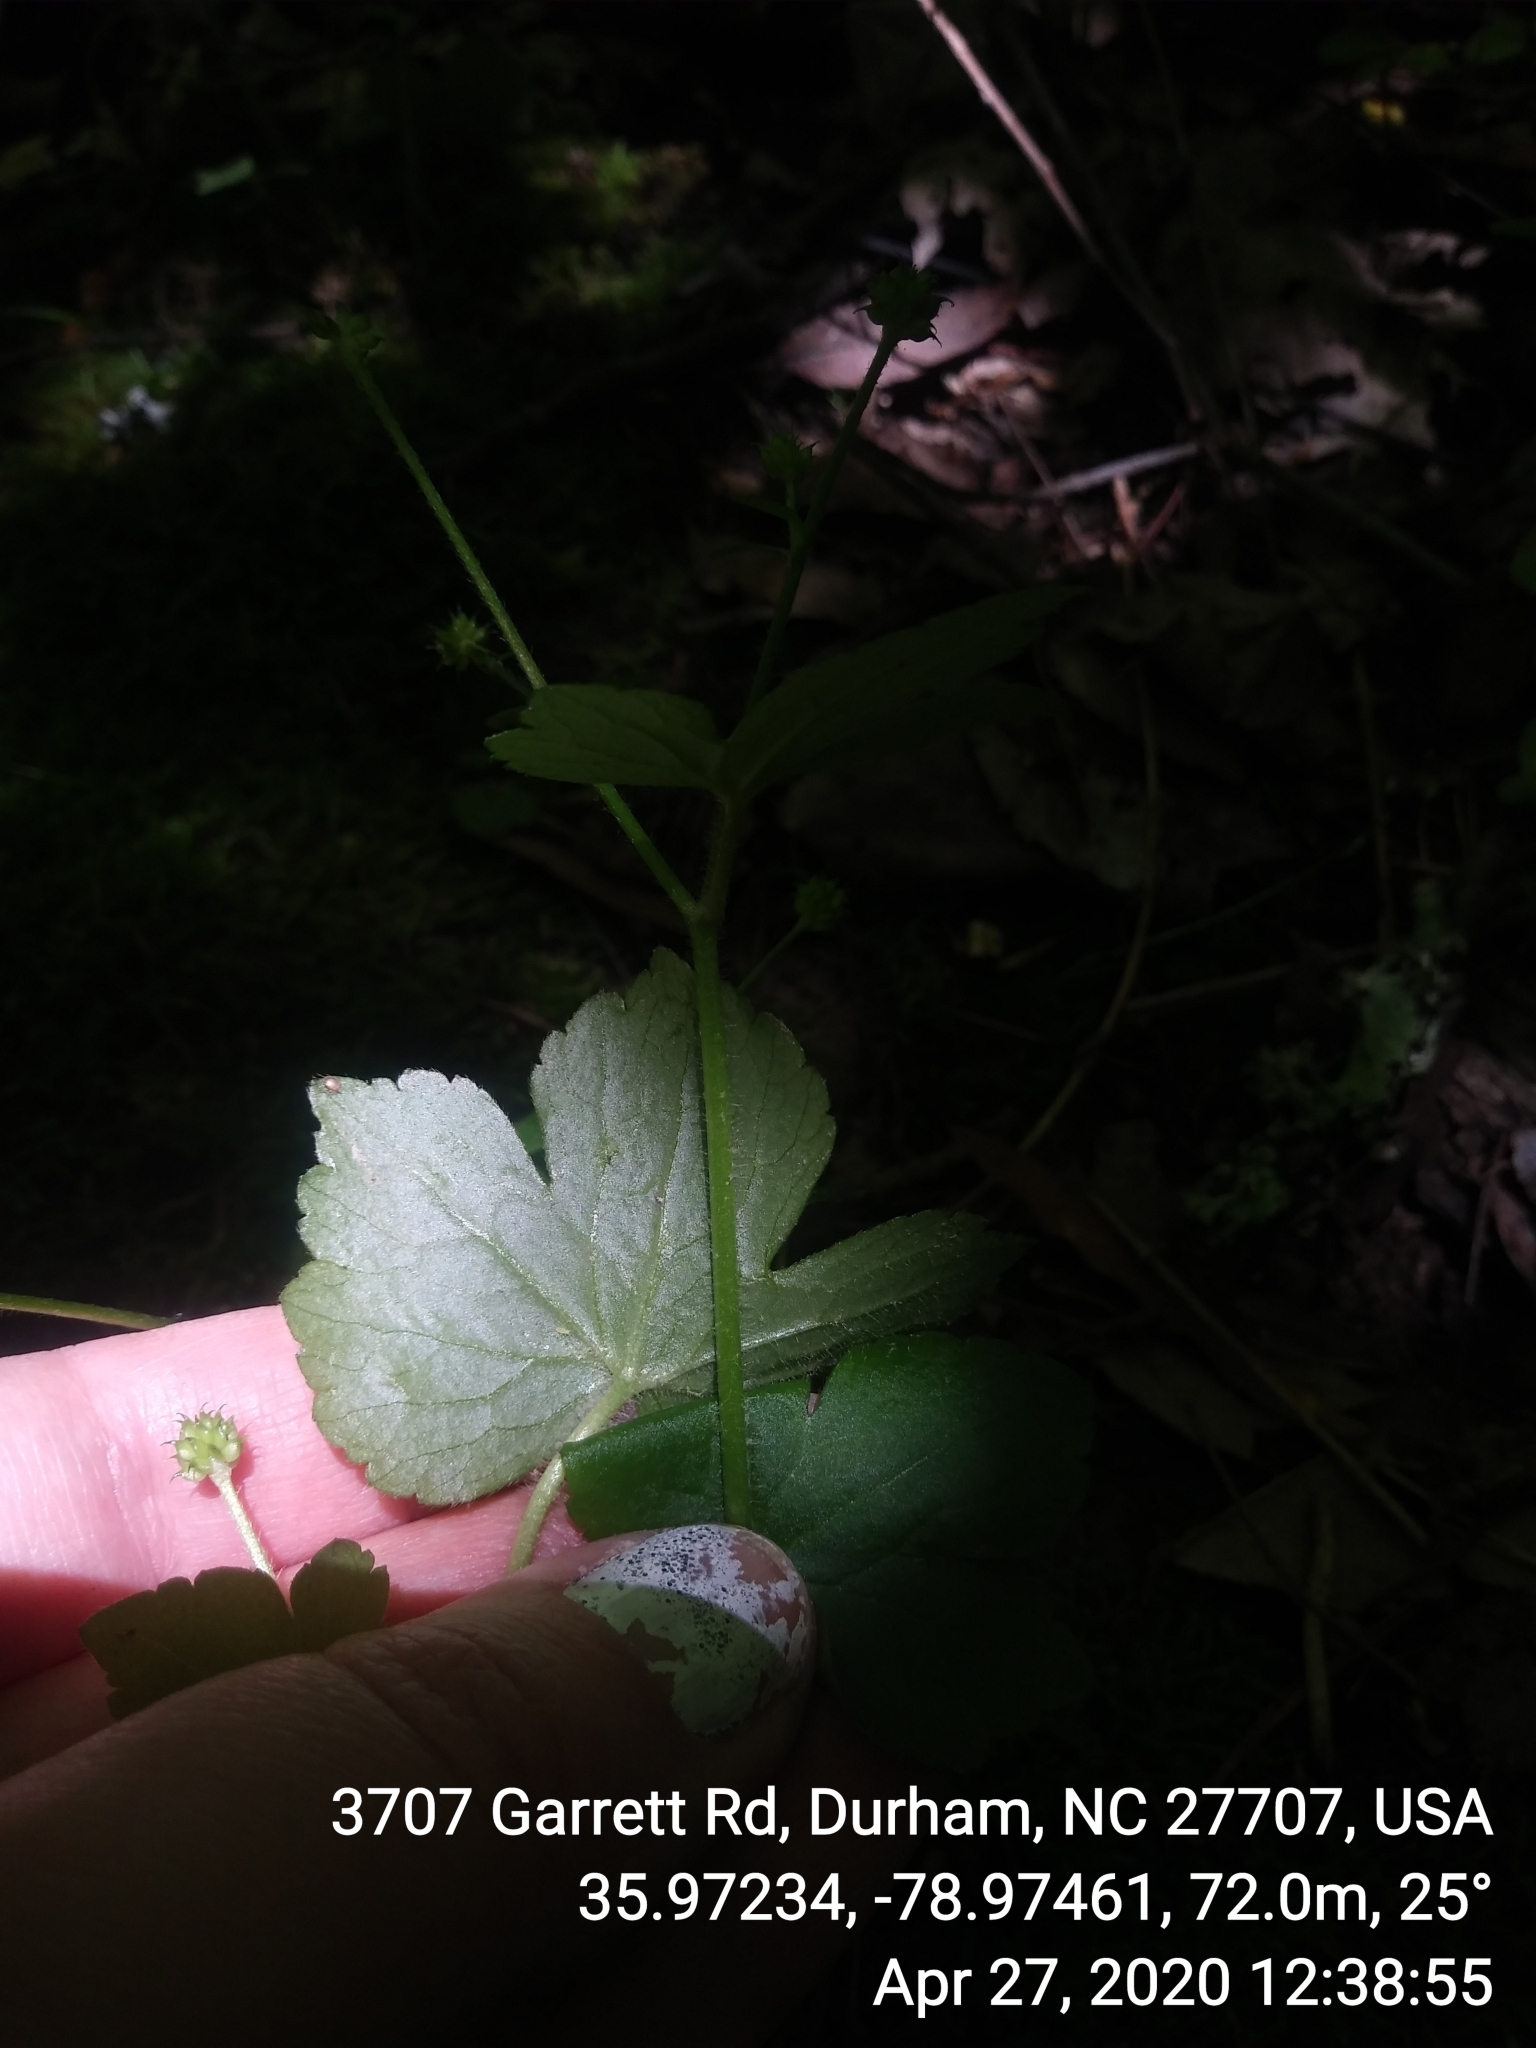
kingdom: Plantae
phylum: Tracheophyta
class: Magnoliopsida
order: Ranunculales
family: Ranunculaceae
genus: Ranunculus
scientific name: Ranunculus recurvatus
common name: Blisterwort
